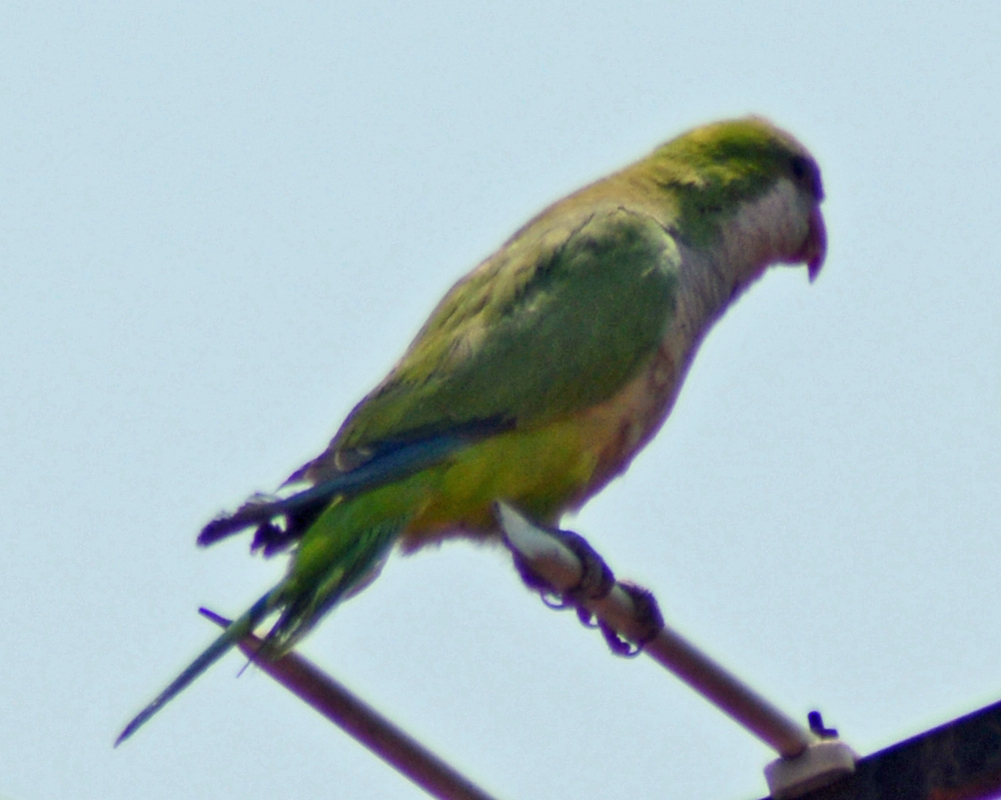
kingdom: Animalia
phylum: Chordata
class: Aves
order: Psittaciformes
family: Psittacidae
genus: Myiopsitta
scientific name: Myiopsitta monachus
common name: Monk parakeet
